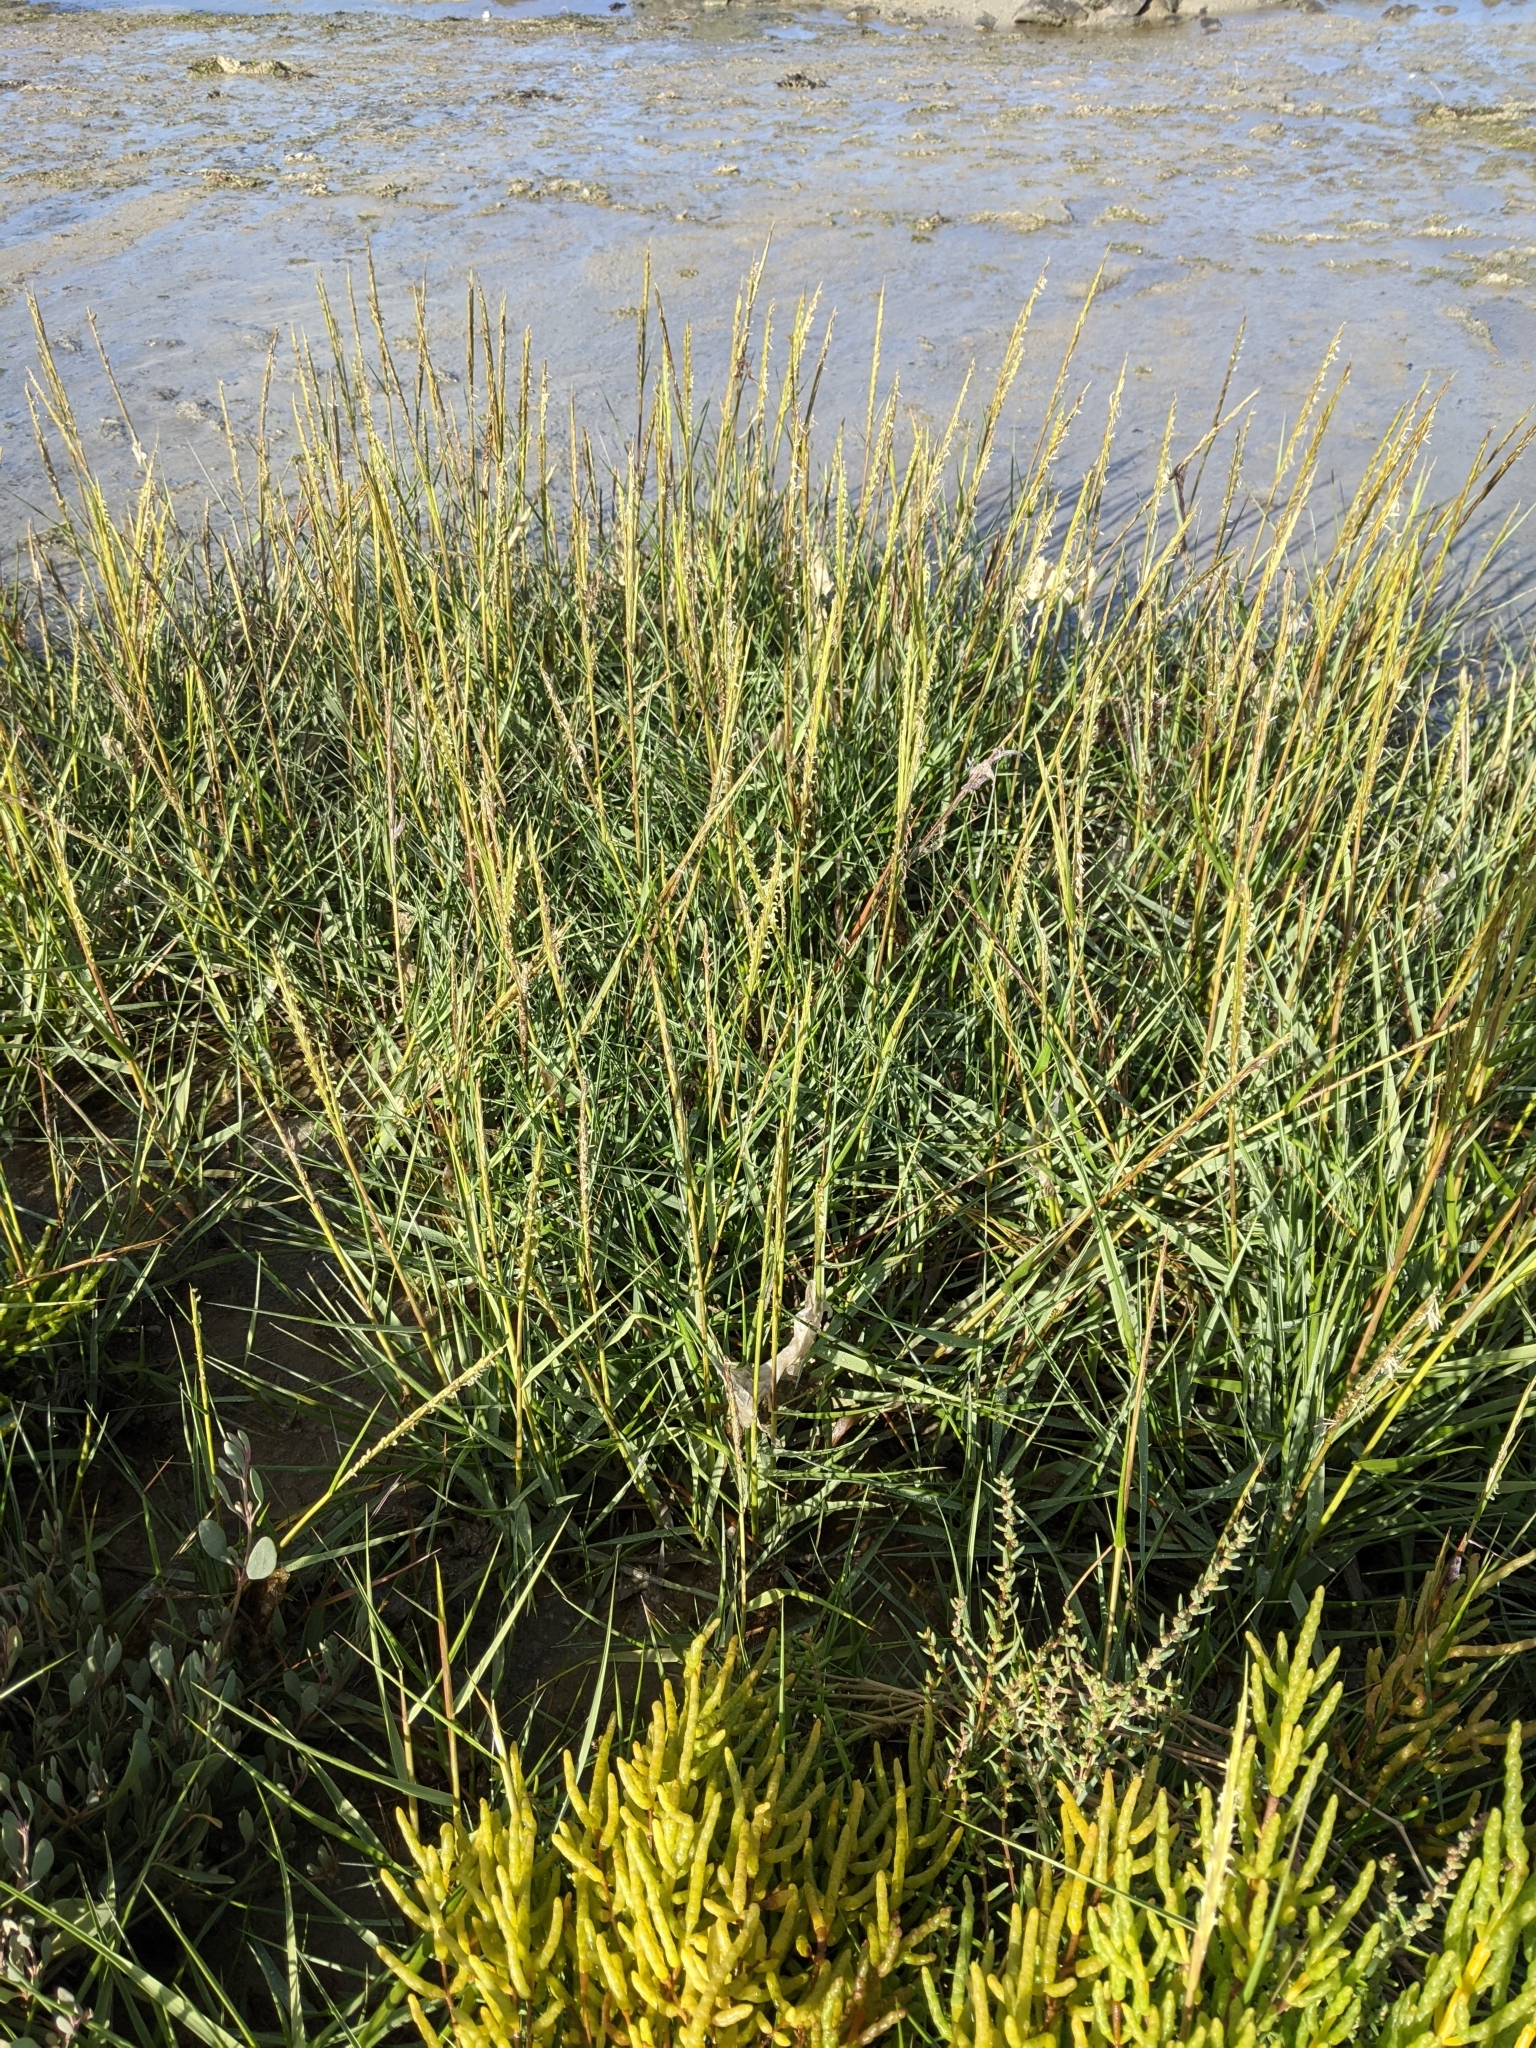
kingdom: Plantae
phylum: Tracheophyta
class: Liliopsida
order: Poales
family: Poaceae
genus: Sporobolus
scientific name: Sporobolus anglicus
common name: English cordgrass
